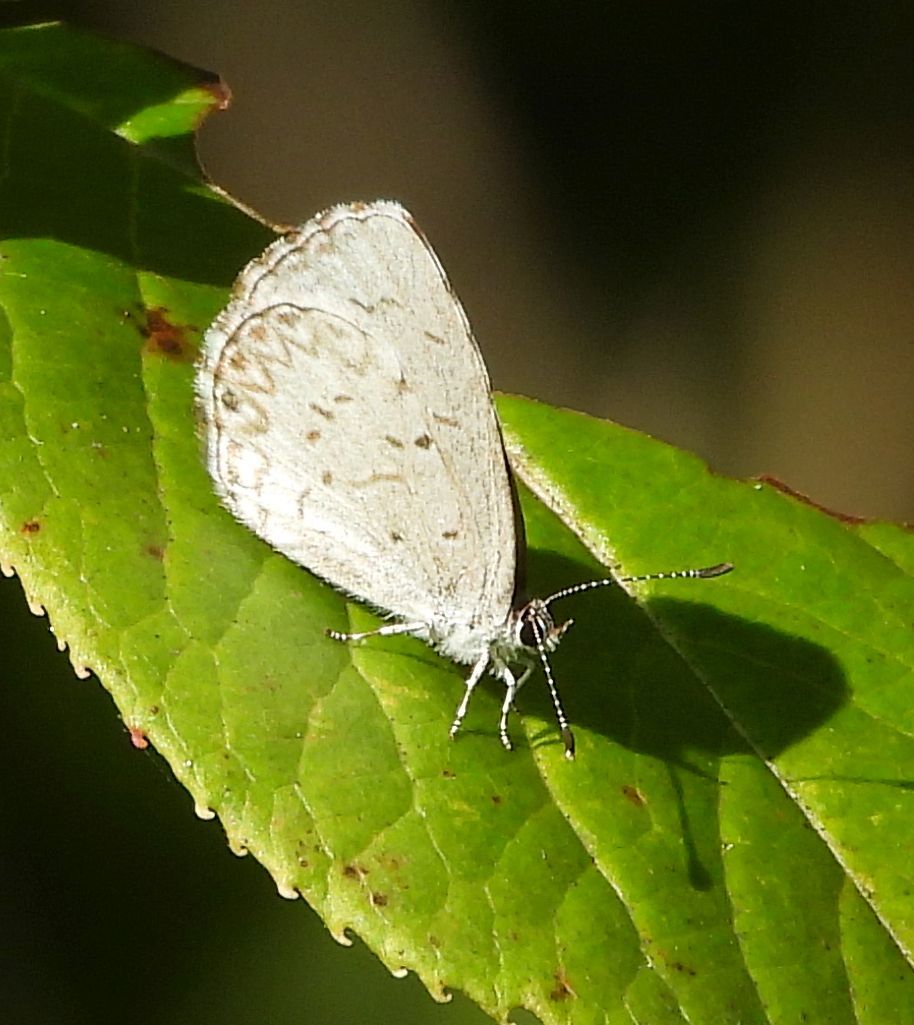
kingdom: Animalia
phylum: Arthropoda
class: Insecta
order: Lepidoptera
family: Lycaenidae
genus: Celastrina
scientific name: Celastrina lucia
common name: Lucia azure
